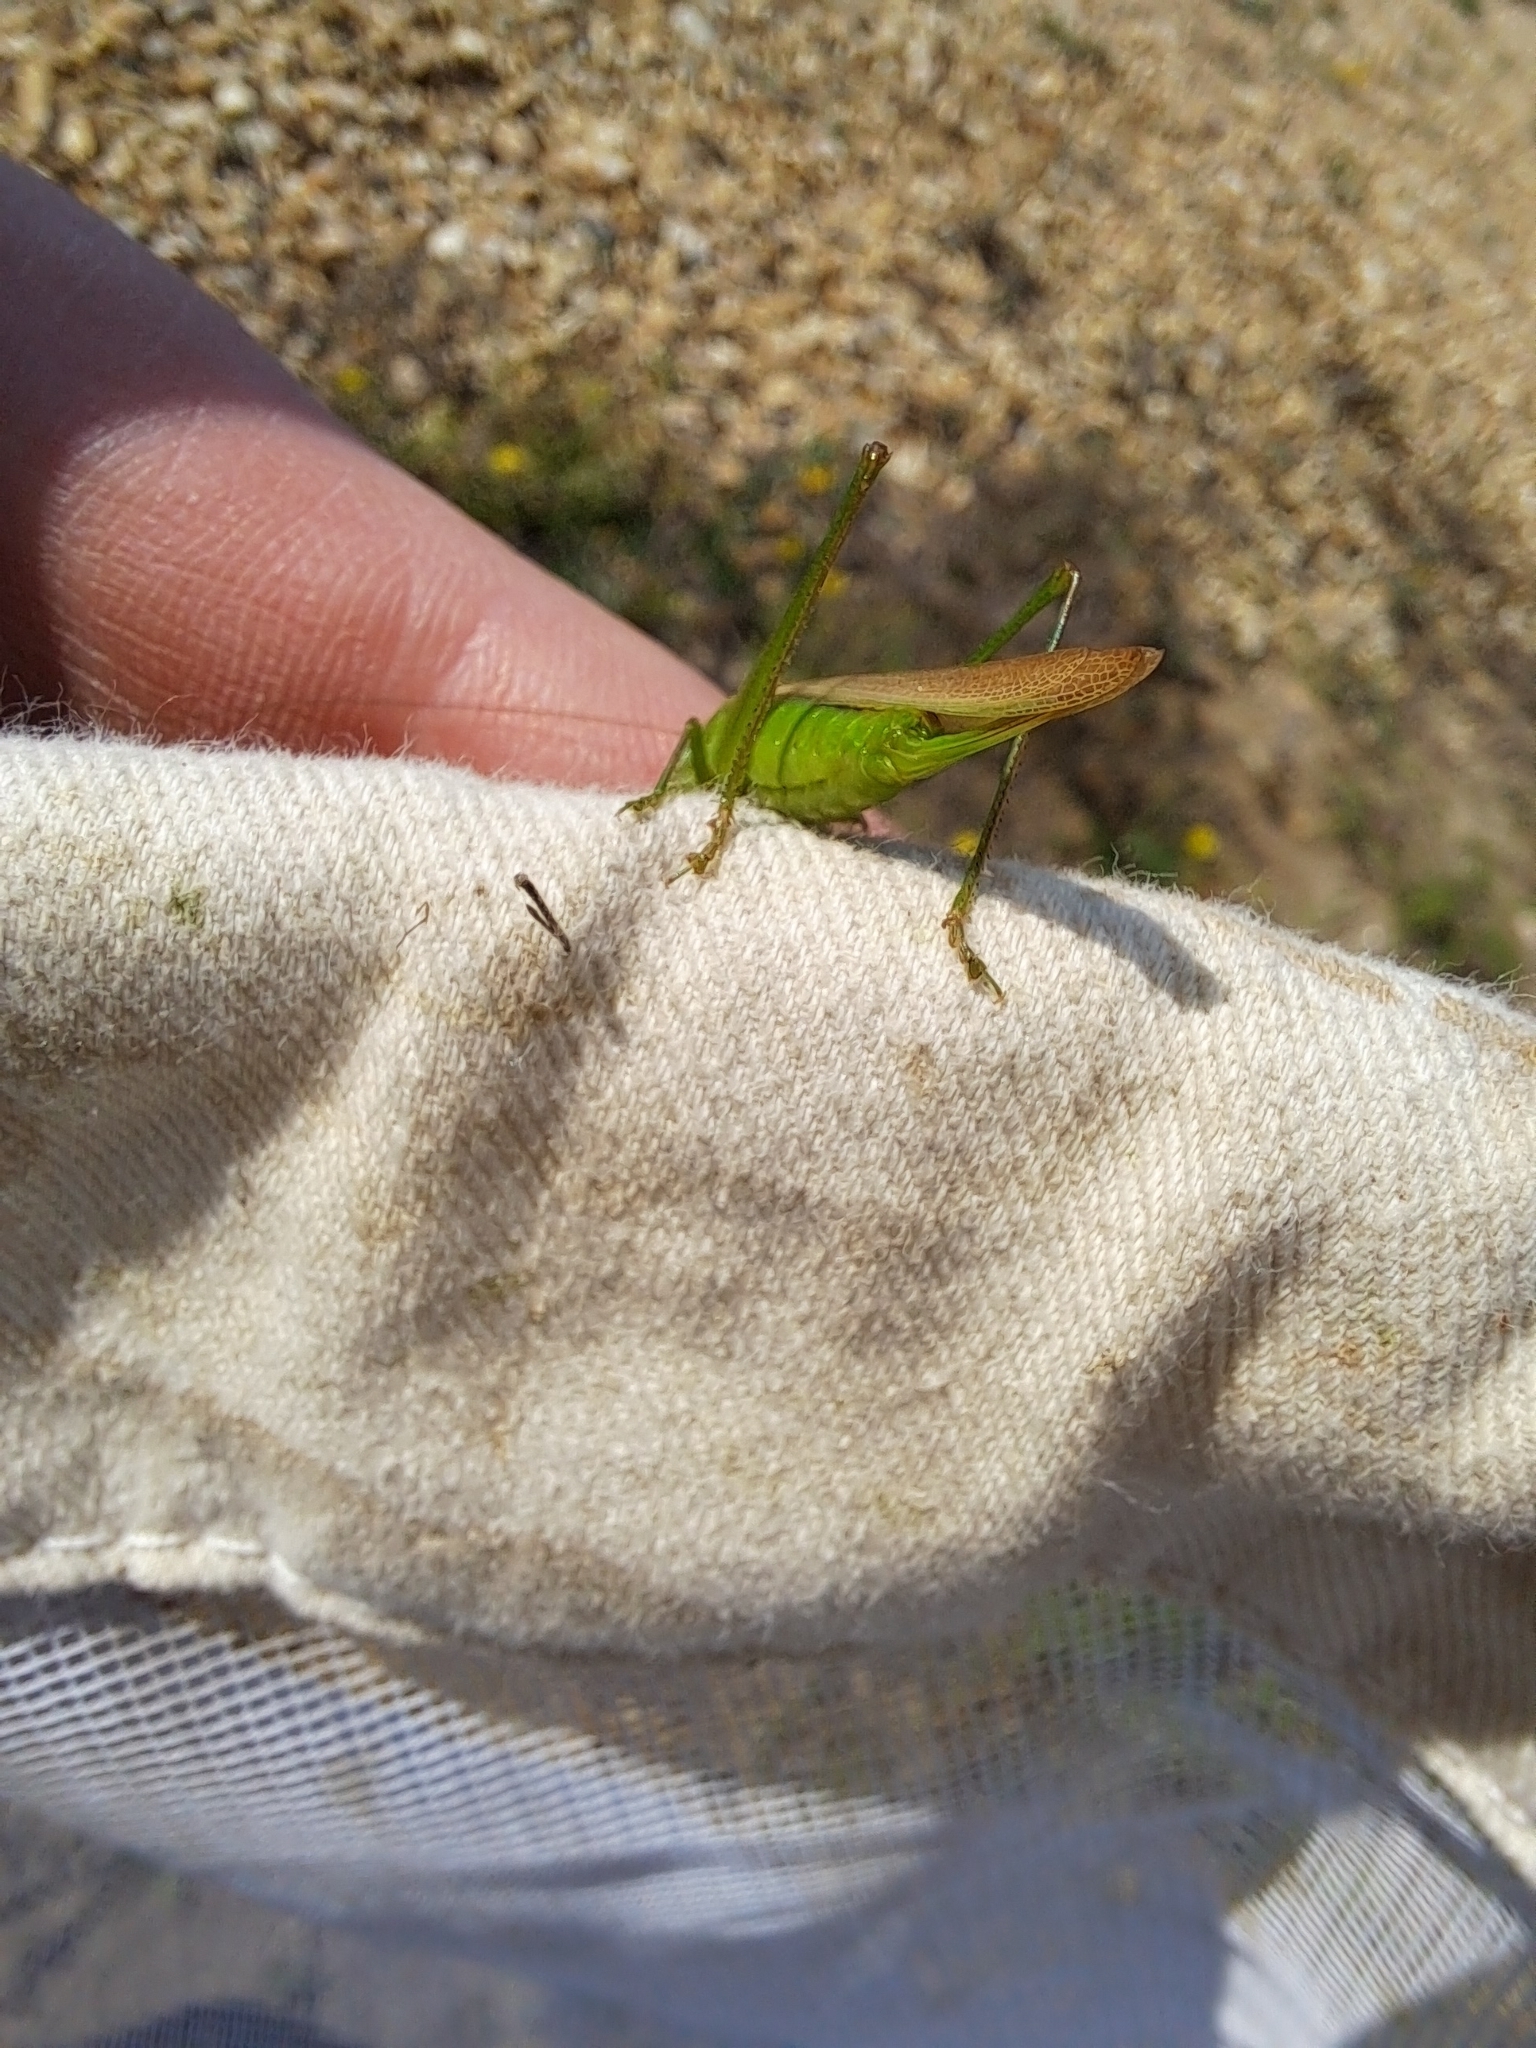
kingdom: Animalia
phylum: Arthropoda
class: Insecta
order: Orthoptera
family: Tettigoniidae
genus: Conocephalus
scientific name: Conocephalus fasciatus
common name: Slender meadow katydid
